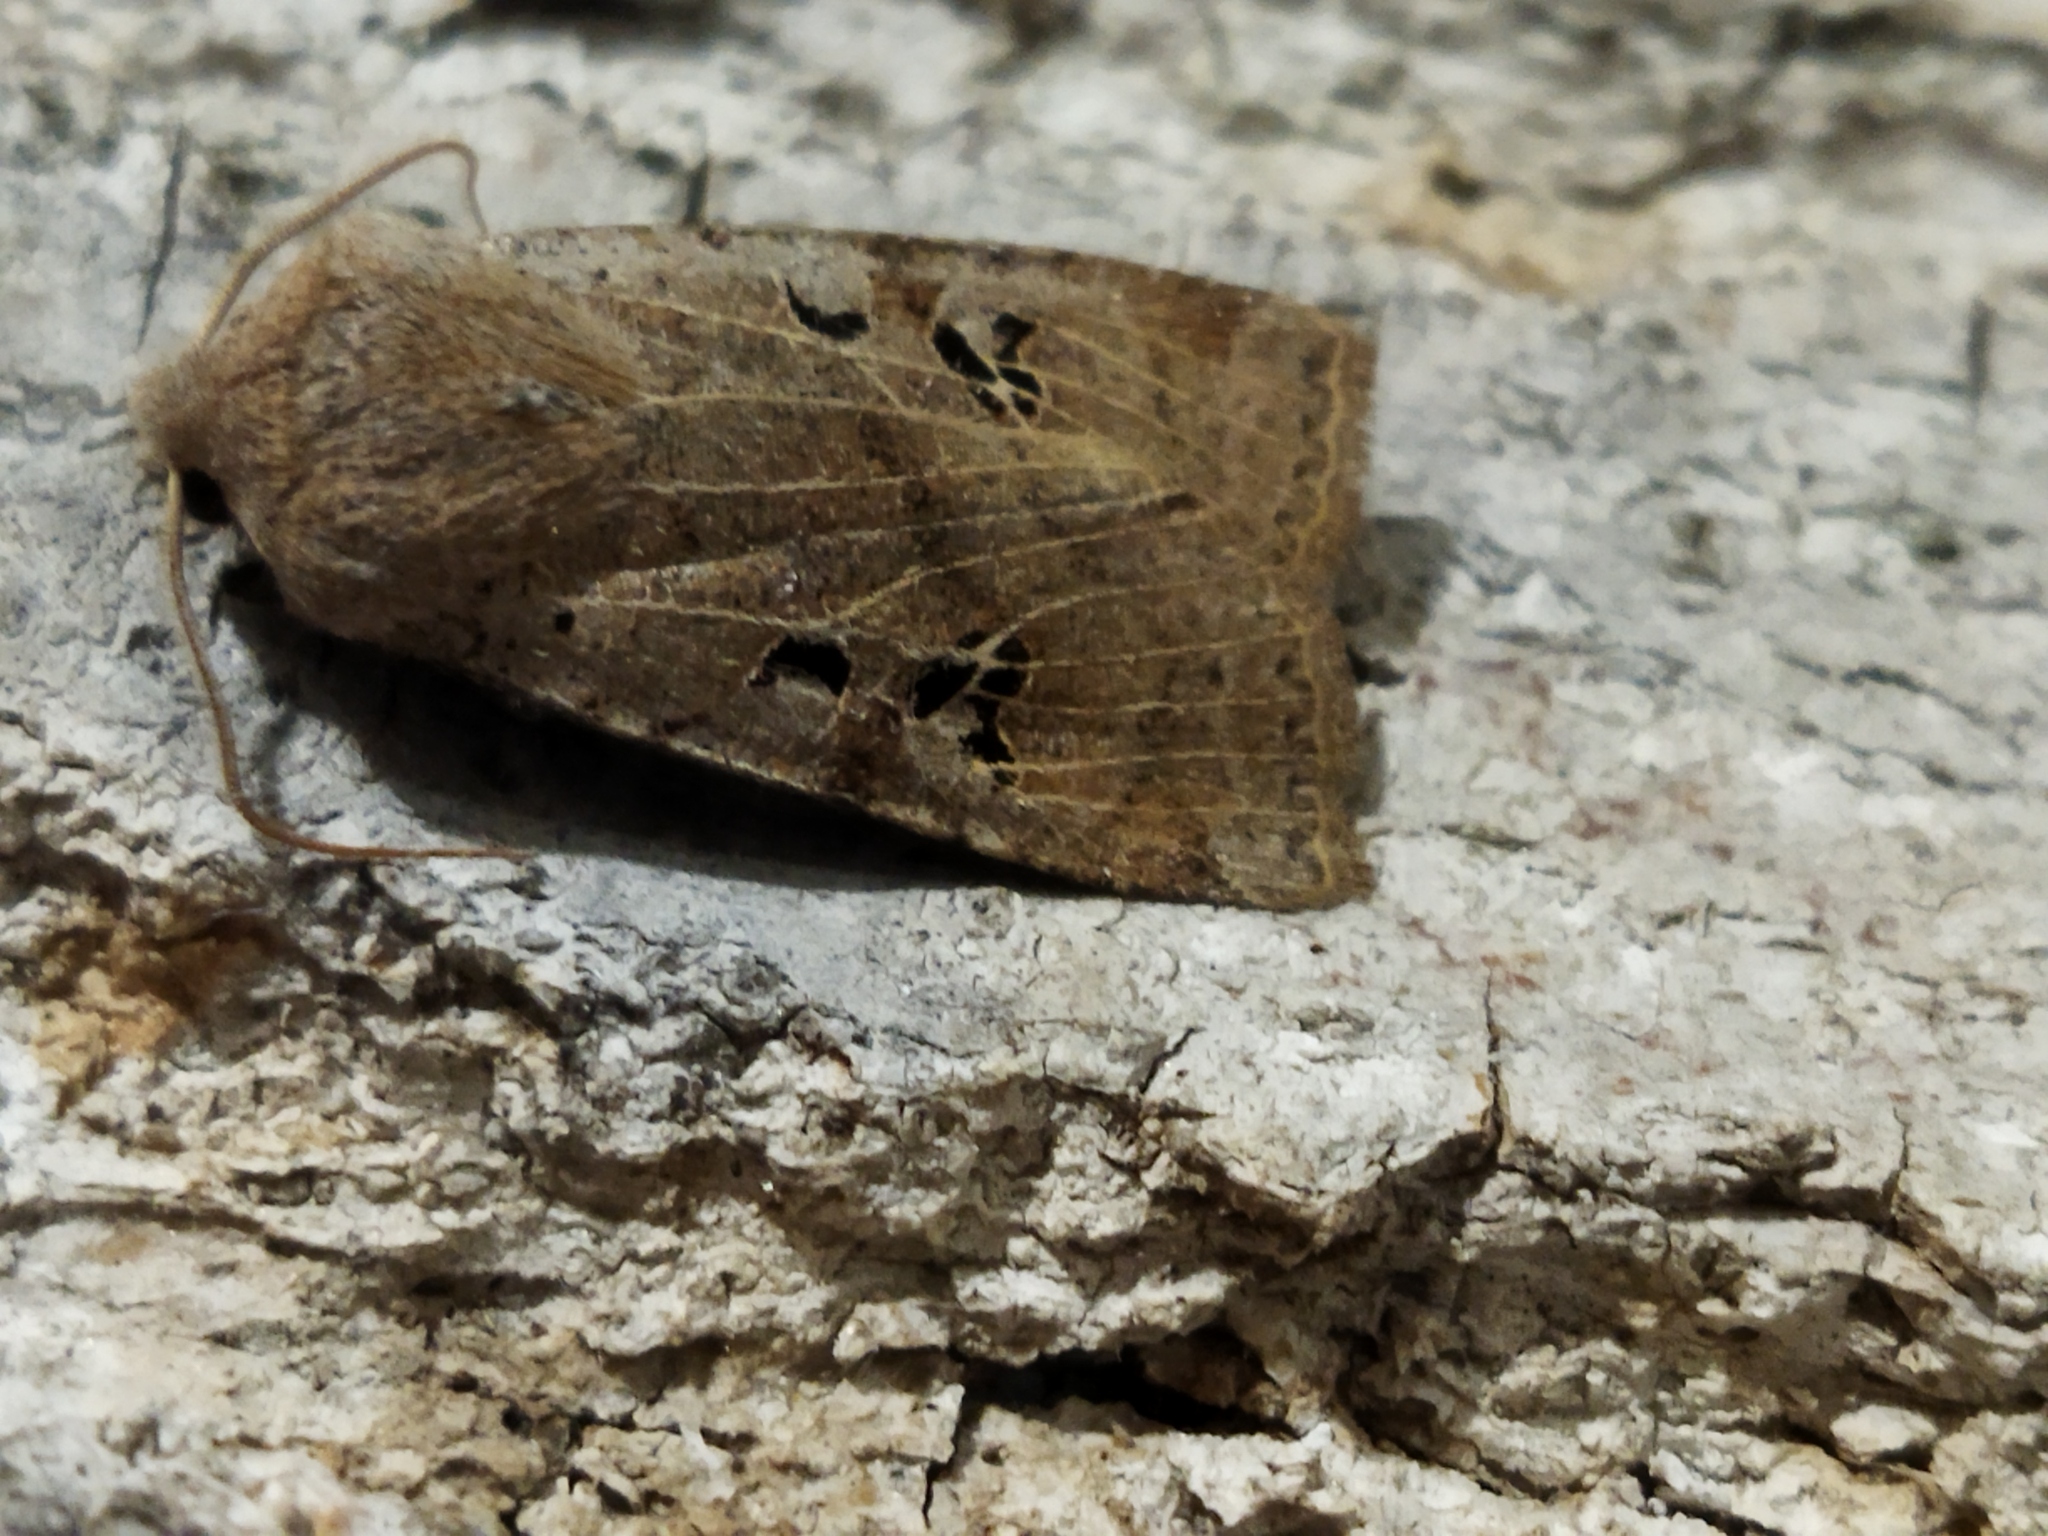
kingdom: Animalia
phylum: Arthropoda
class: Insecta
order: Lepidoptera
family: Noctuidae
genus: Conistra
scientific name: Conistra rubiginosa
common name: Black-spotted chestnut
